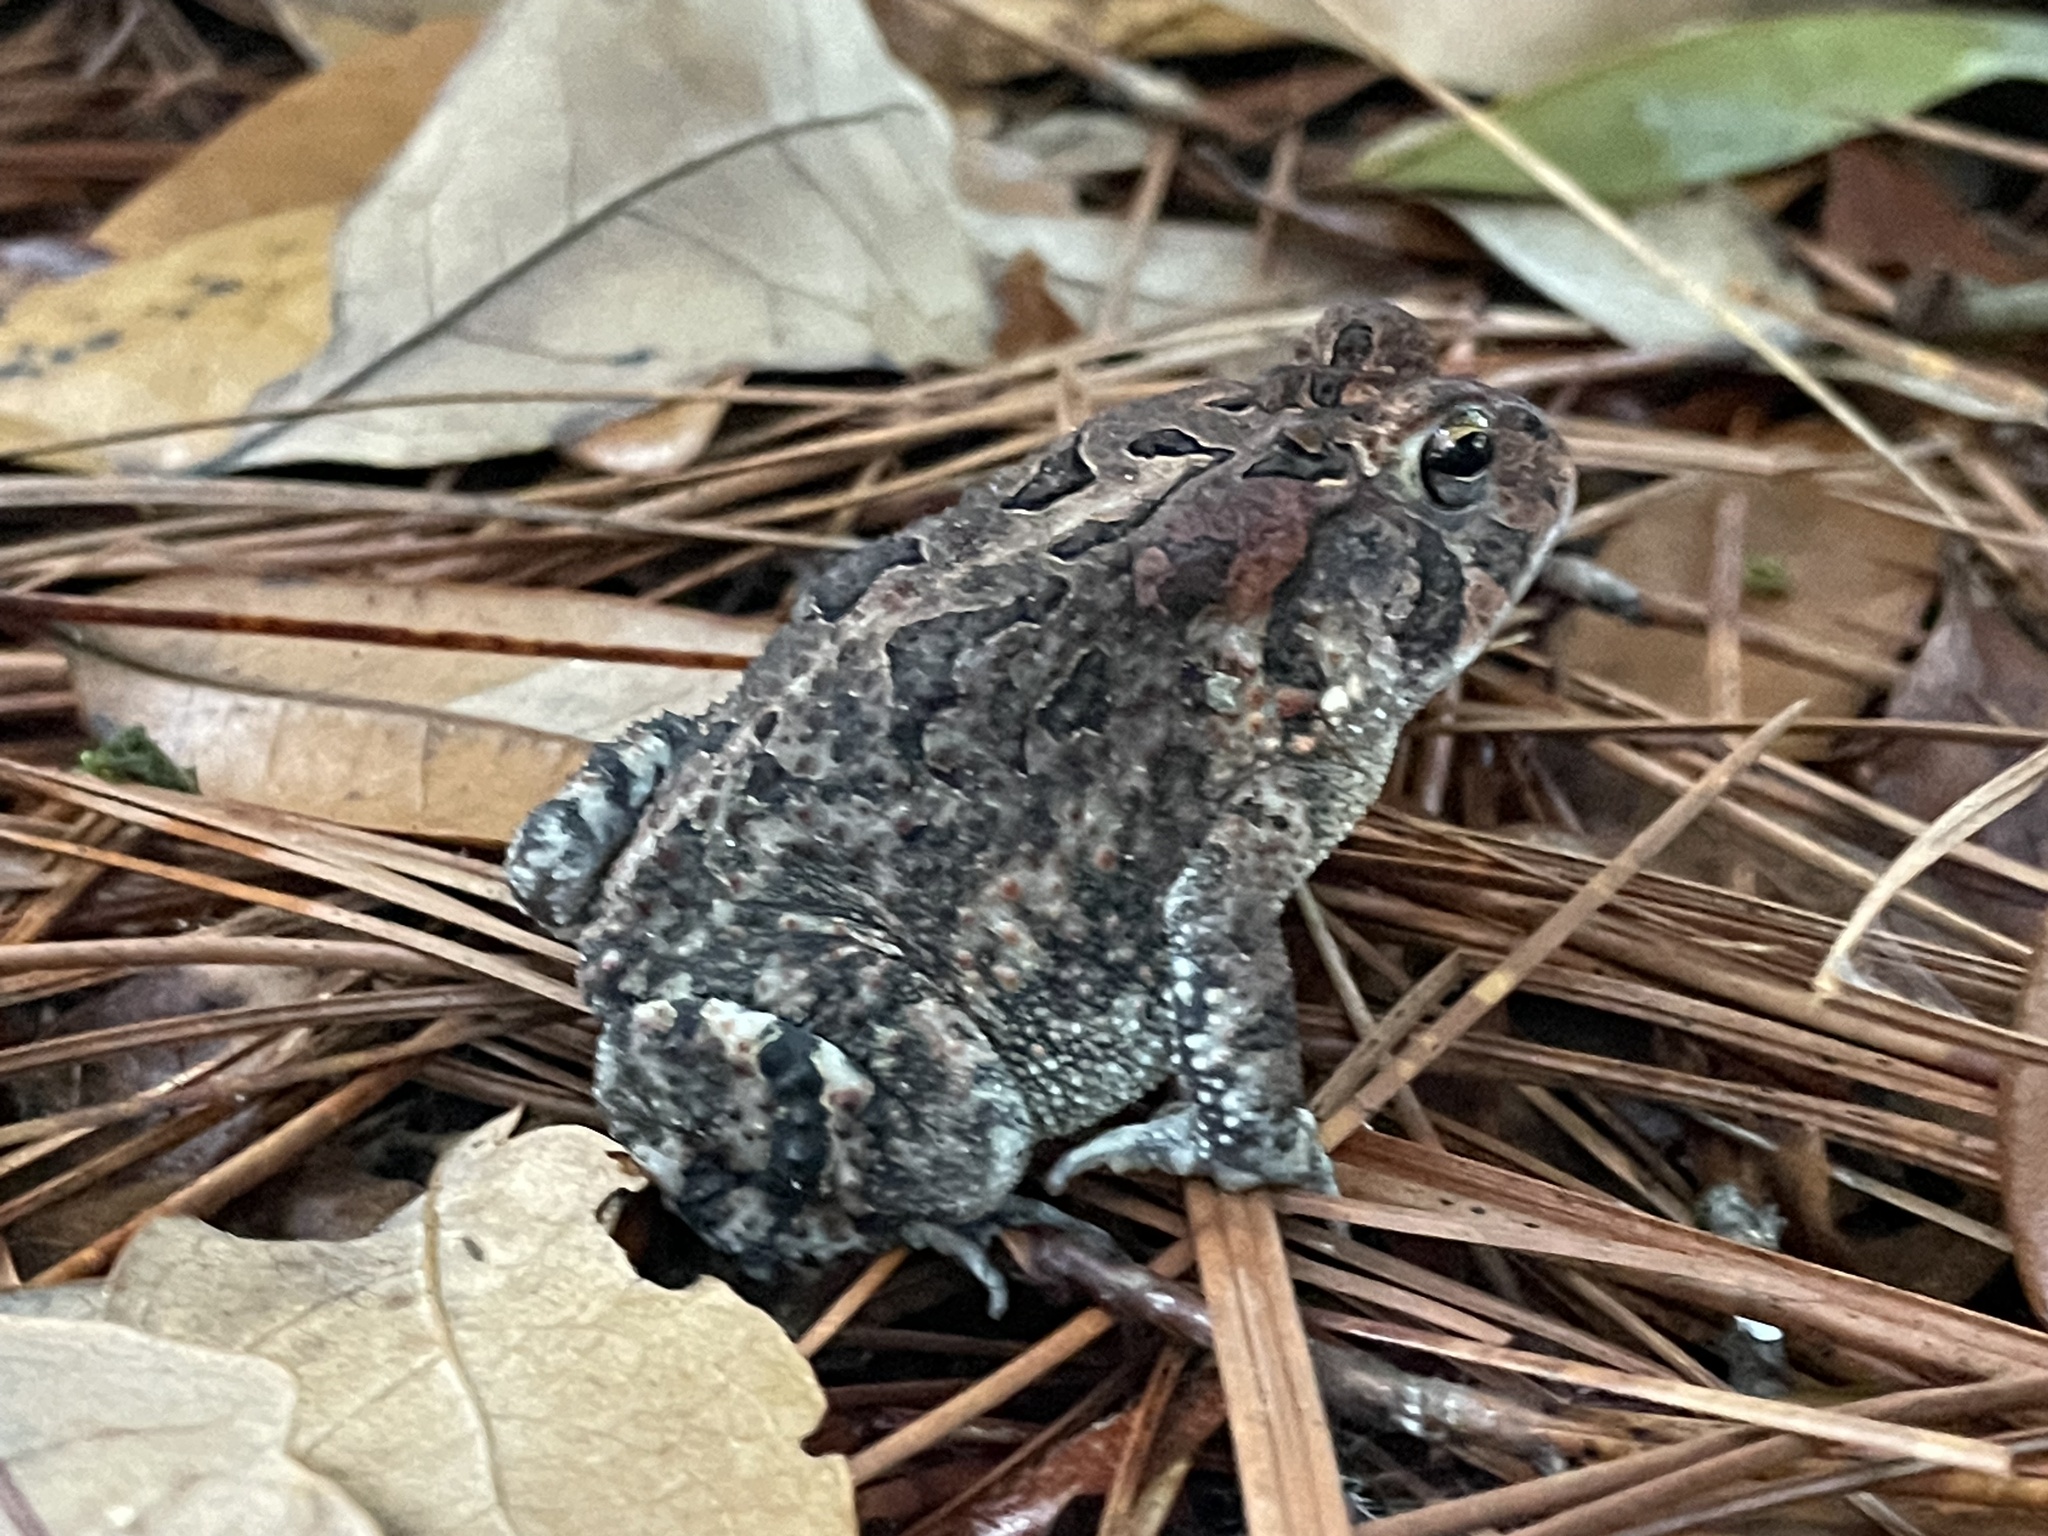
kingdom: Animalia
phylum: Chordata
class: Amphibia
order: Anura
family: Bufonidae
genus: Anaxyrus
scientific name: Anaxyrus terrestris
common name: Southern toad
